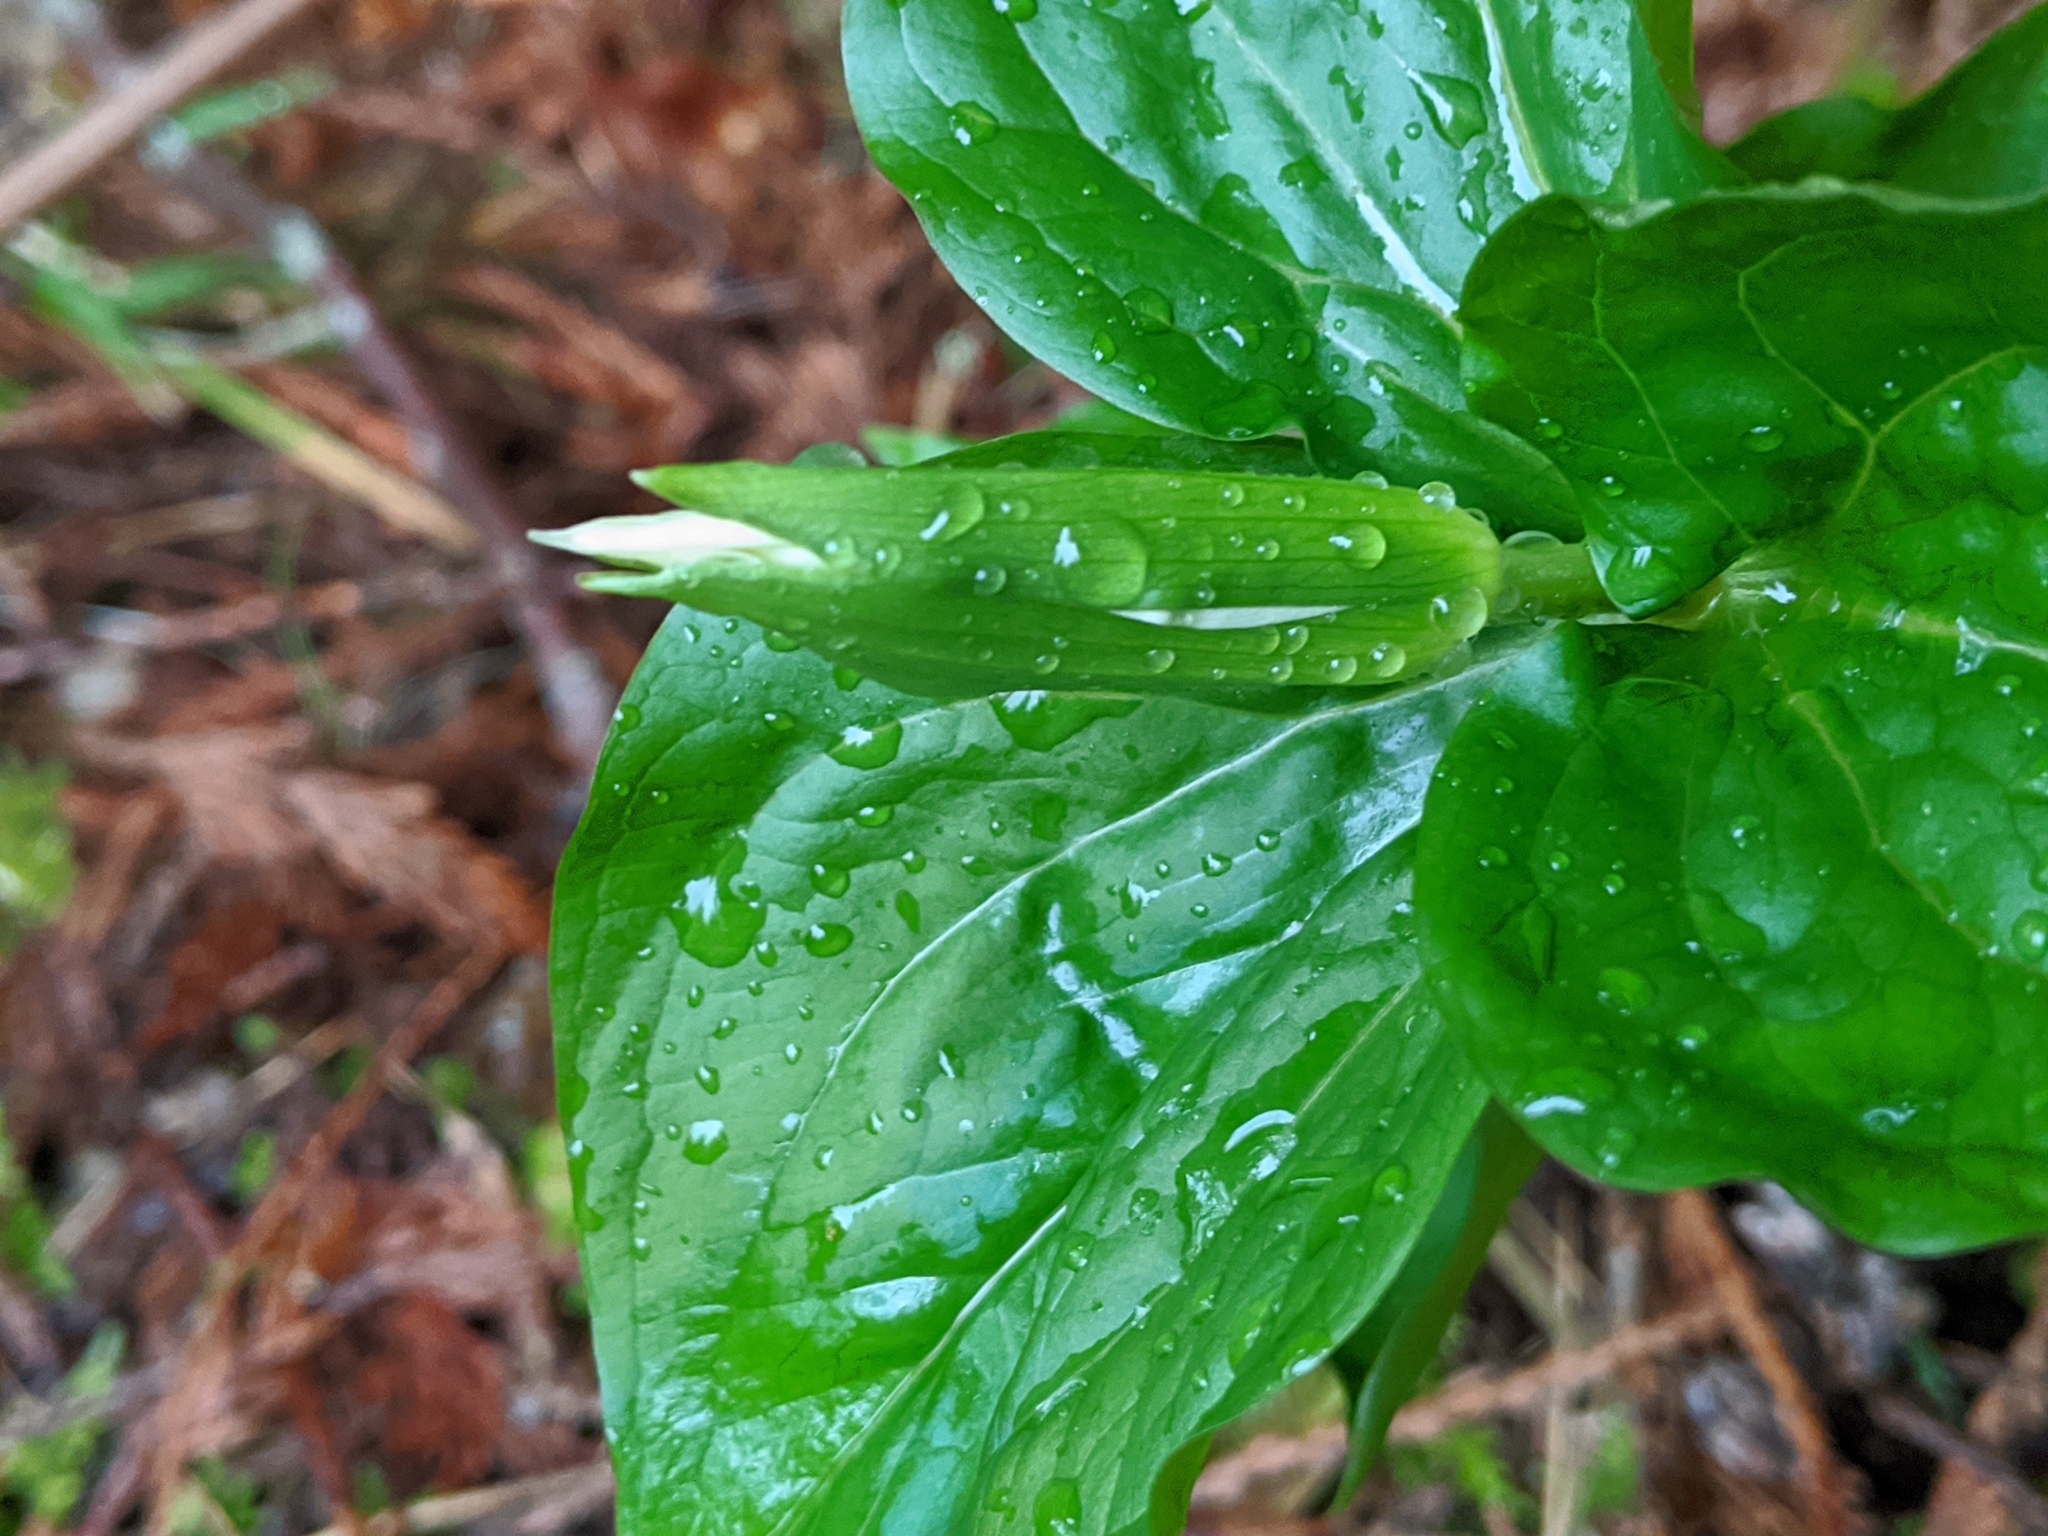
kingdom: Plantae
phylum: Tracheophyta
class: Liliopsida
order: Liliales
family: Melanthiaceae
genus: Trillium
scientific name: Trillium ovatum
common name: Pacific trillium
